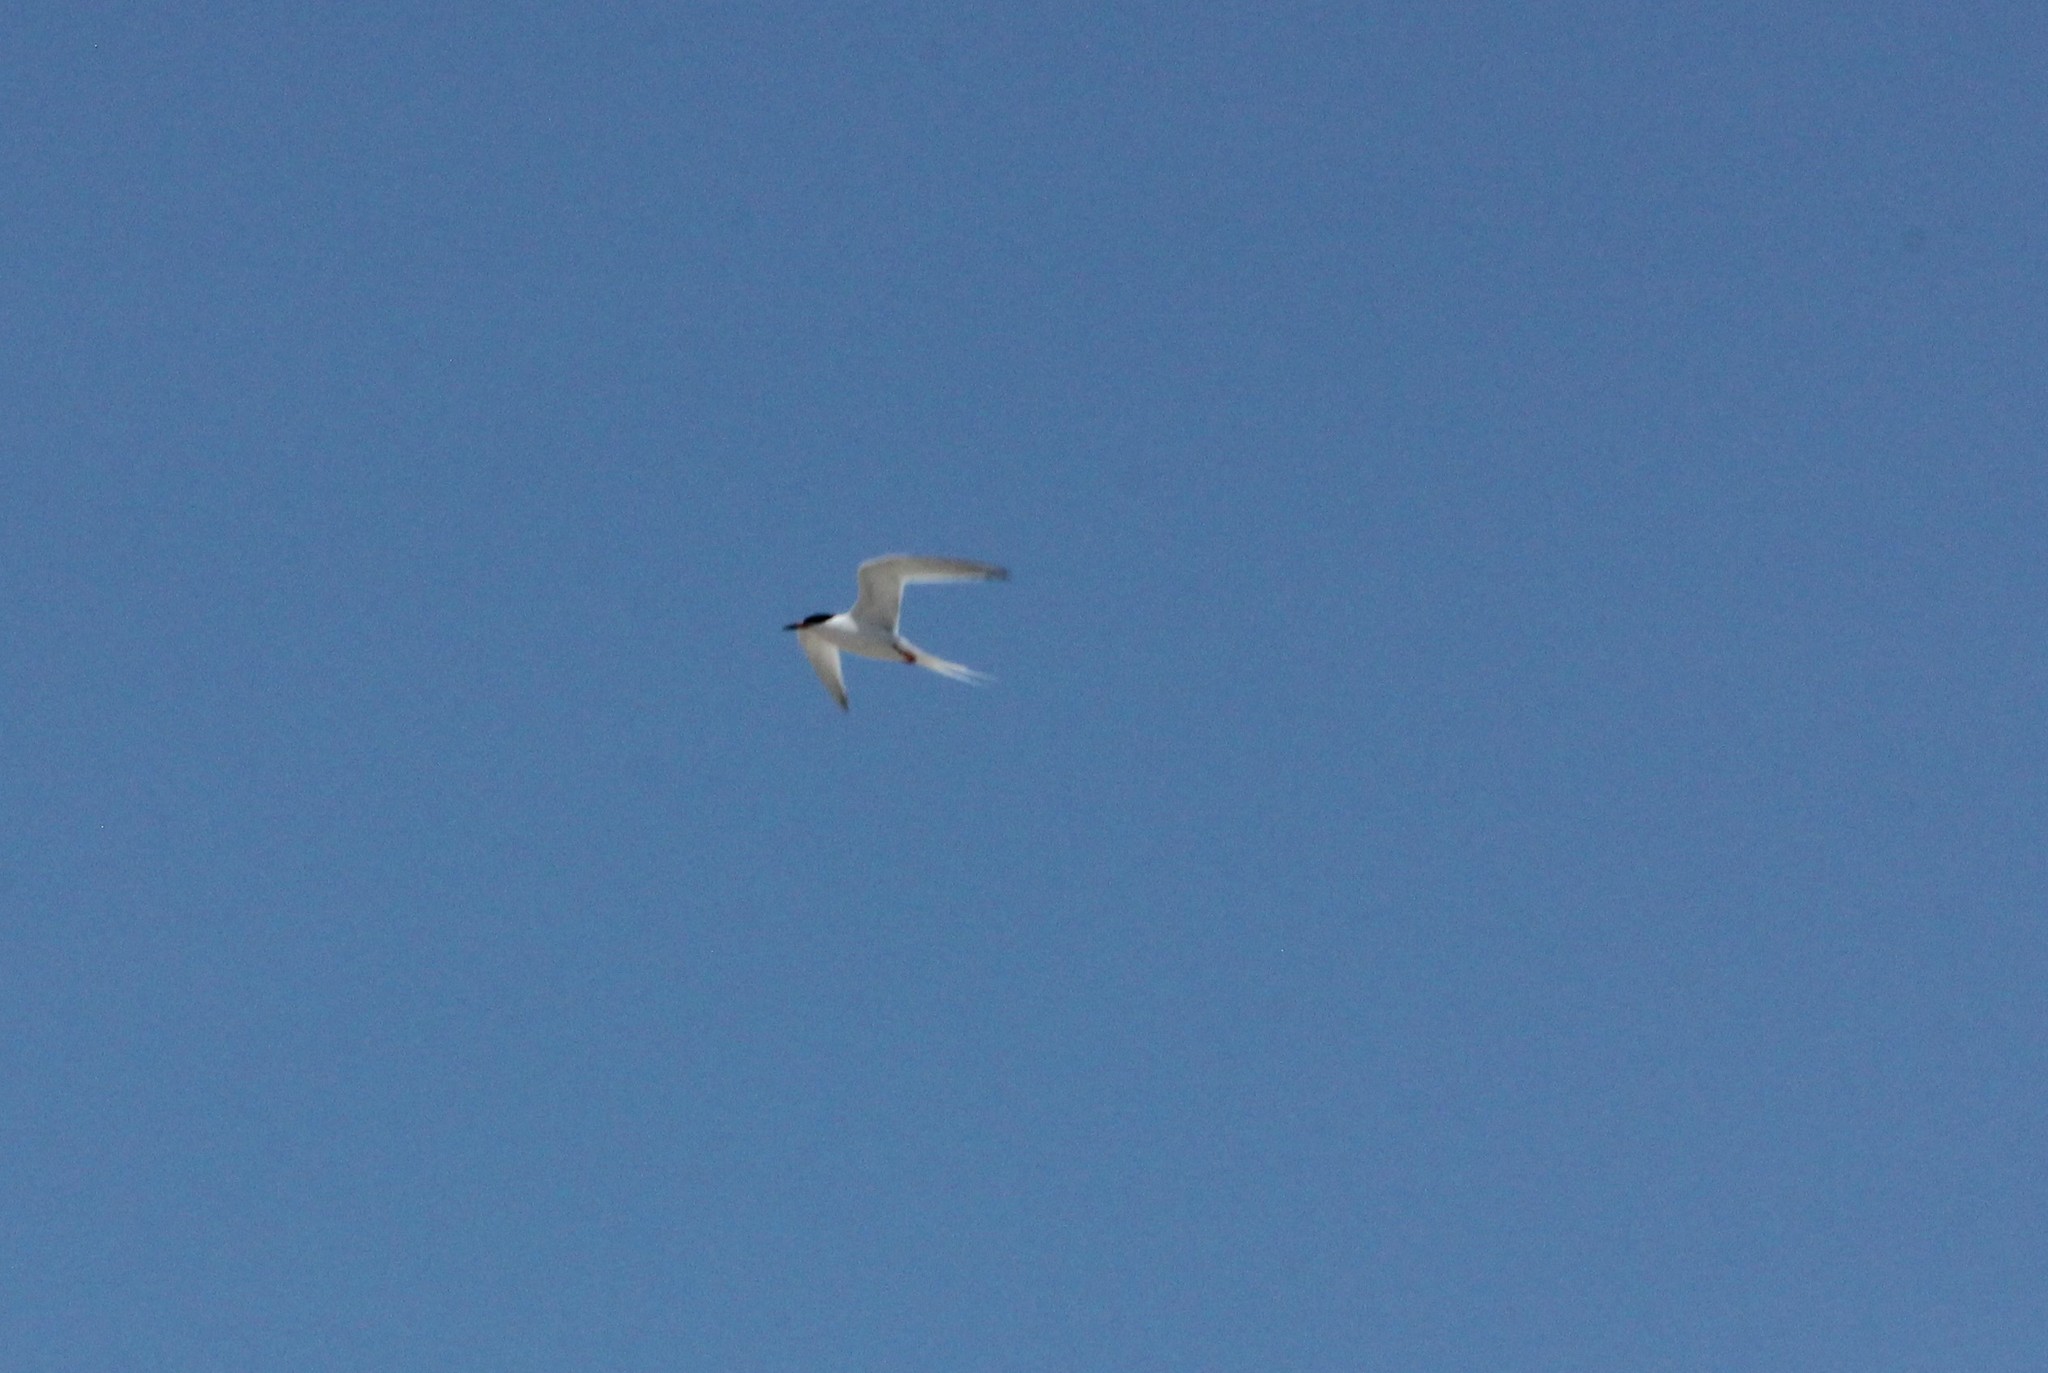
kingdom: Animalia
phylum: Chordata
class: Aves
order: Charadriiformes
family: Laridae
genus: Sterna
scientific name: Sterna dougallii
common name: Roseate tern
